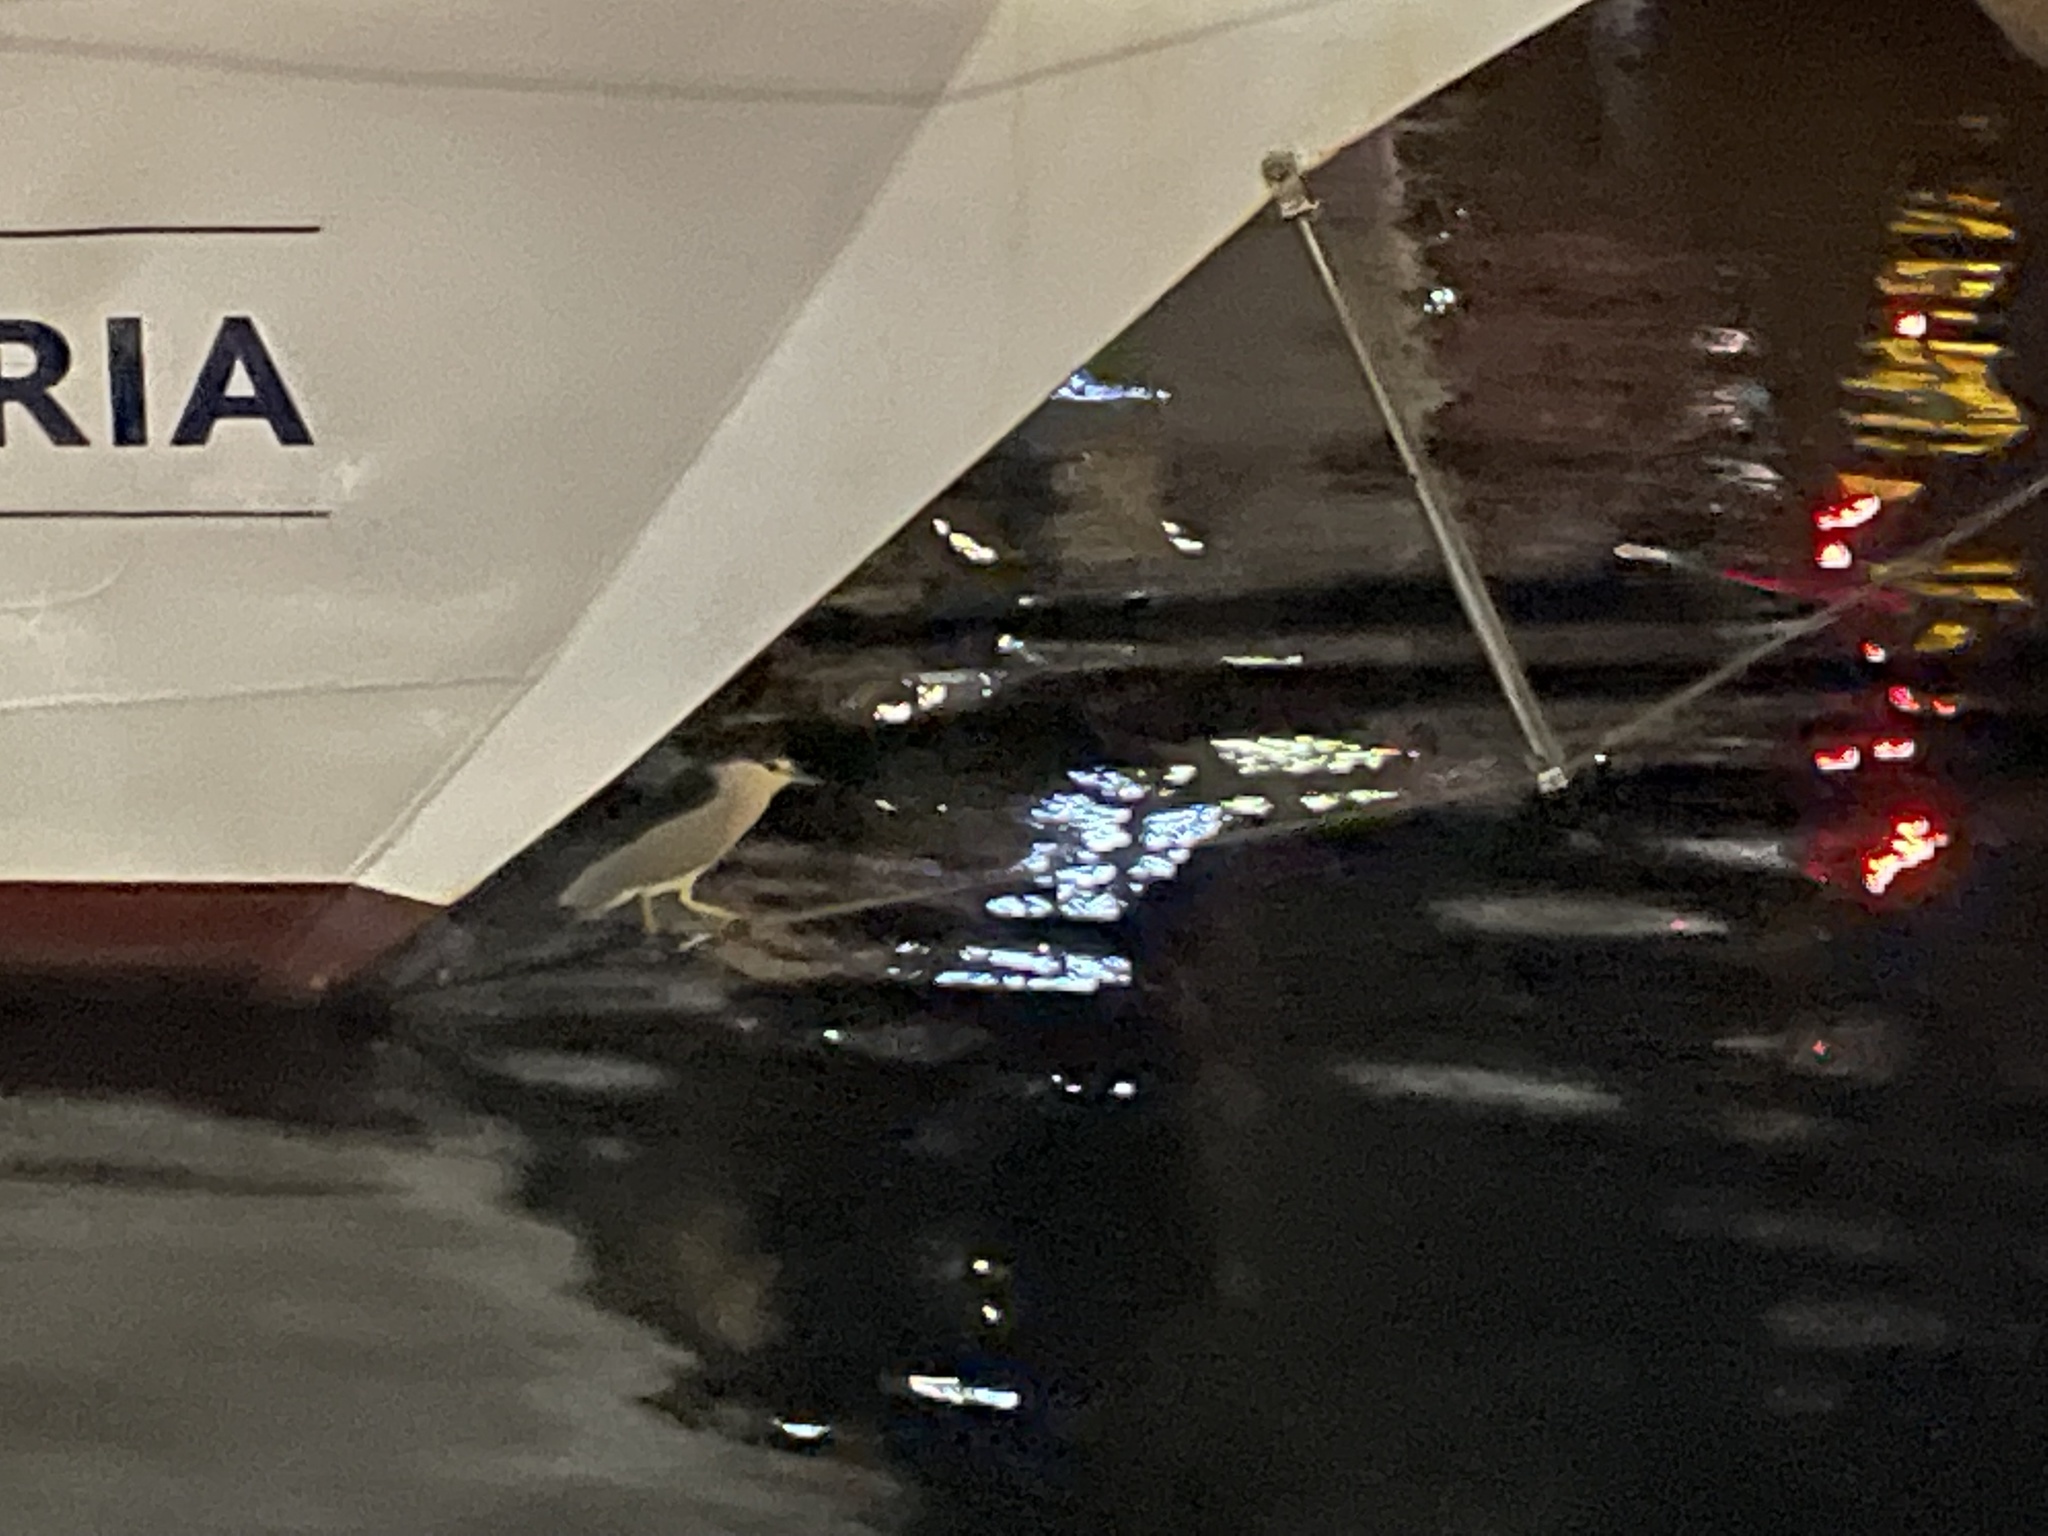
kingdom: Animalia
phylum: Chordata
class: Aves
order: Pelecaniformes
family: Ardeidae
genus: Nycticorax
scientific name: Nycticorax nycticorax
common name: Black-crowned night heron
